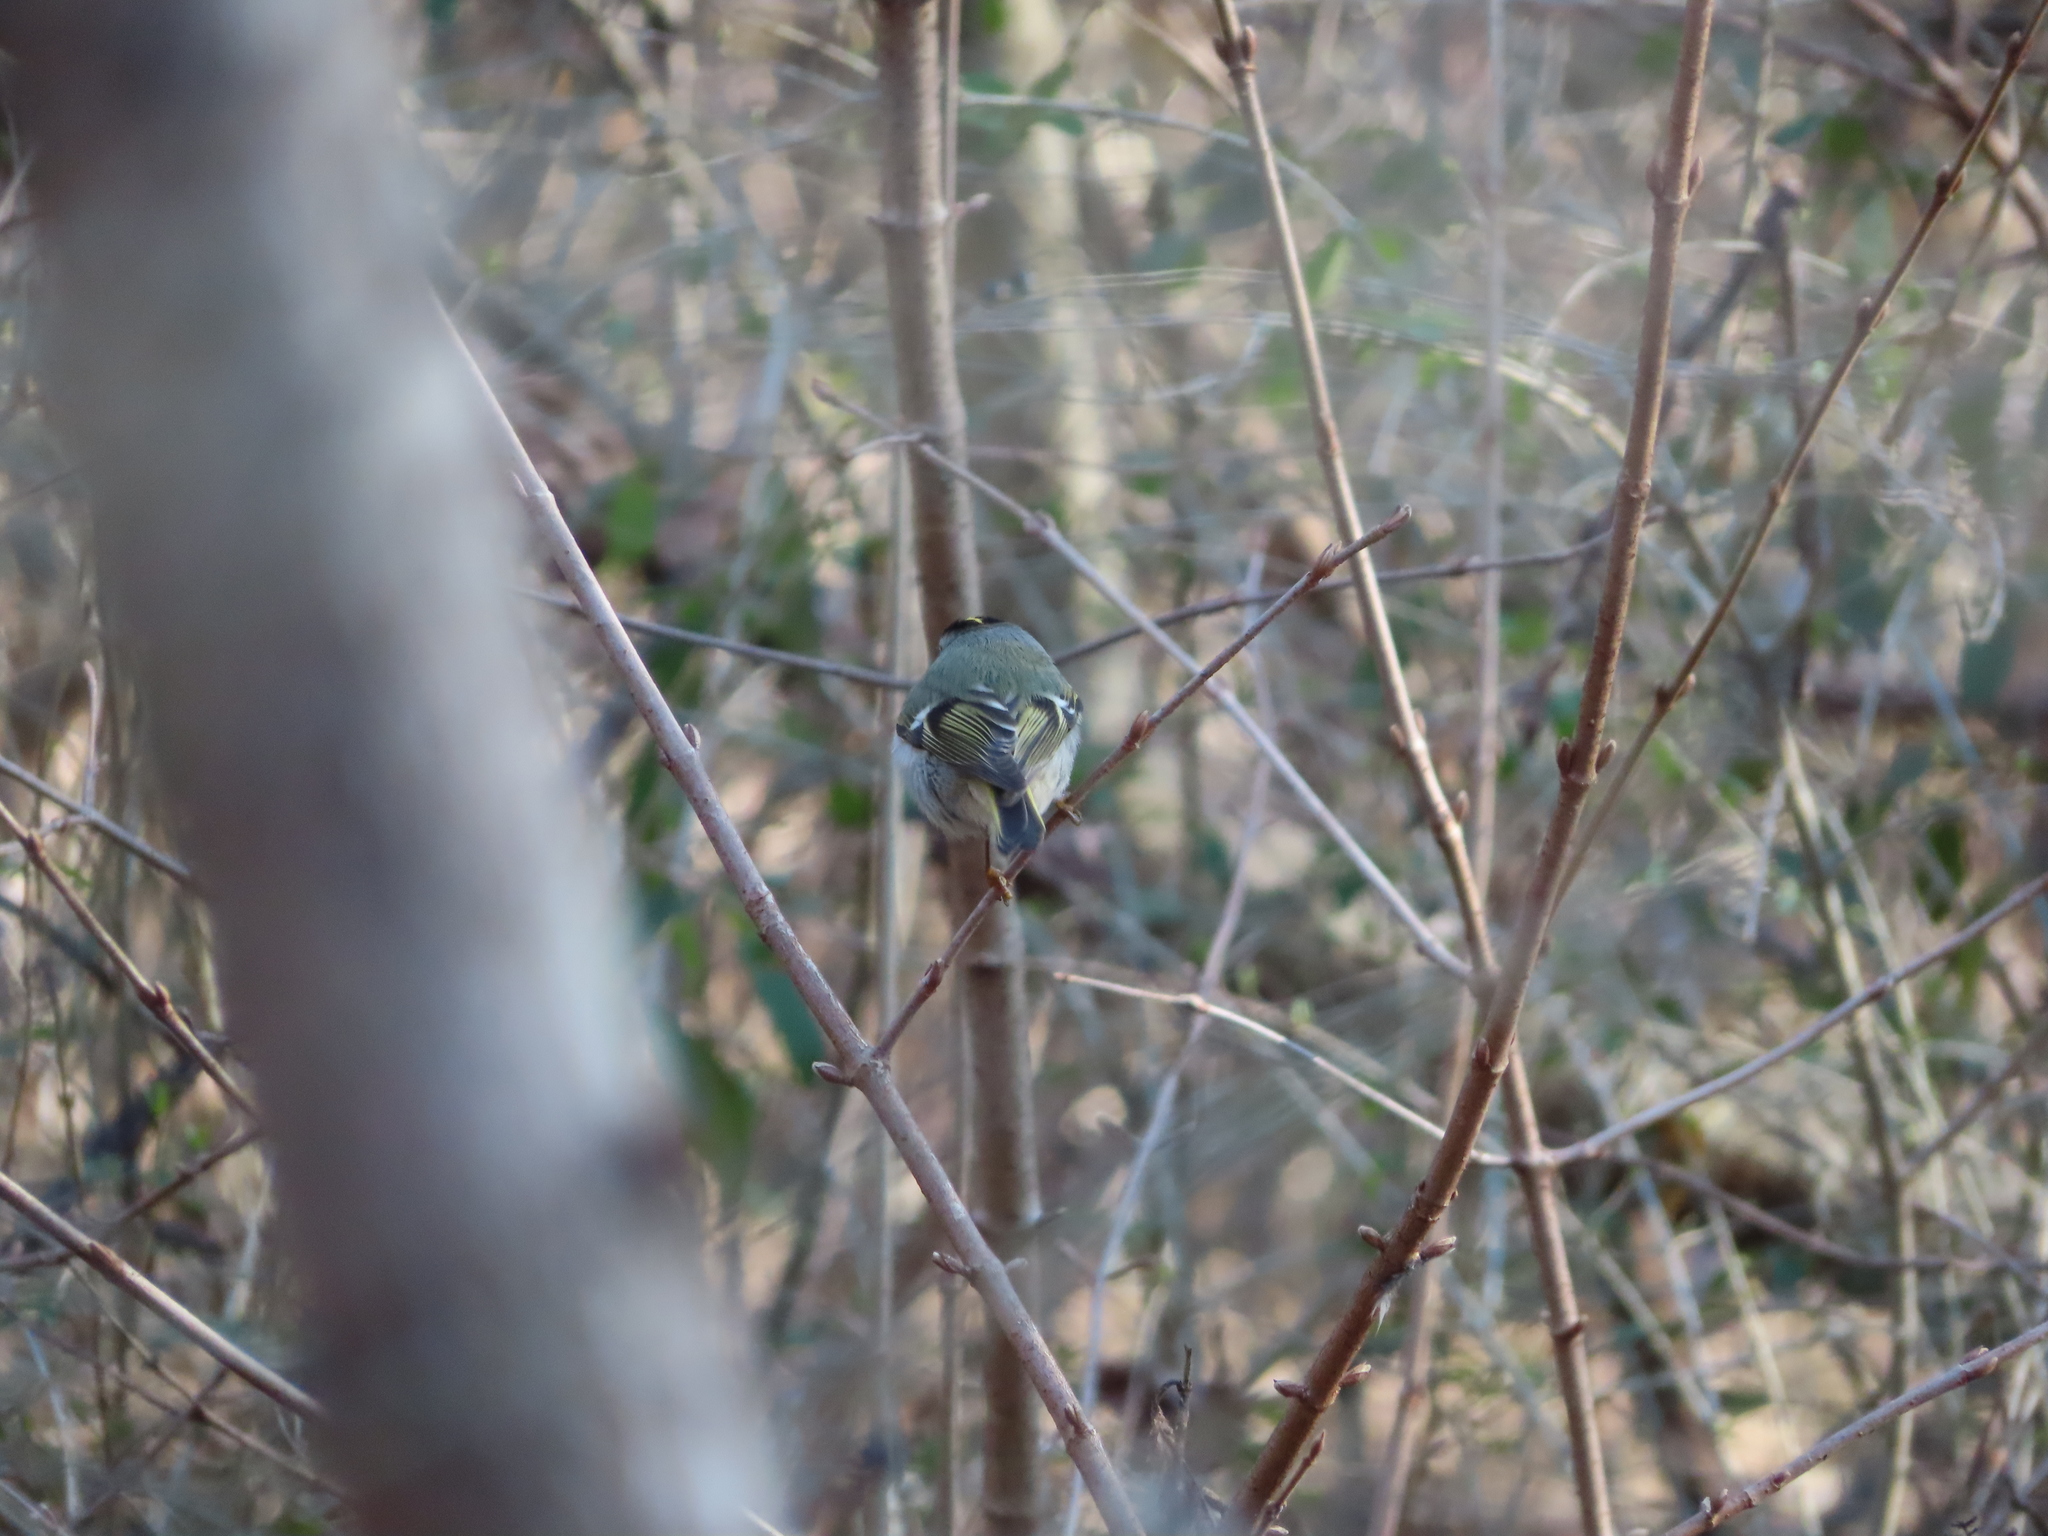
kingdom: Animalia
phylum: Chordata
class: Aves
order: Passeriformes
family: Regulidae
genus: Regulus
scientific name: Regulus satrapa
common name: Golden-crowned kinglet
